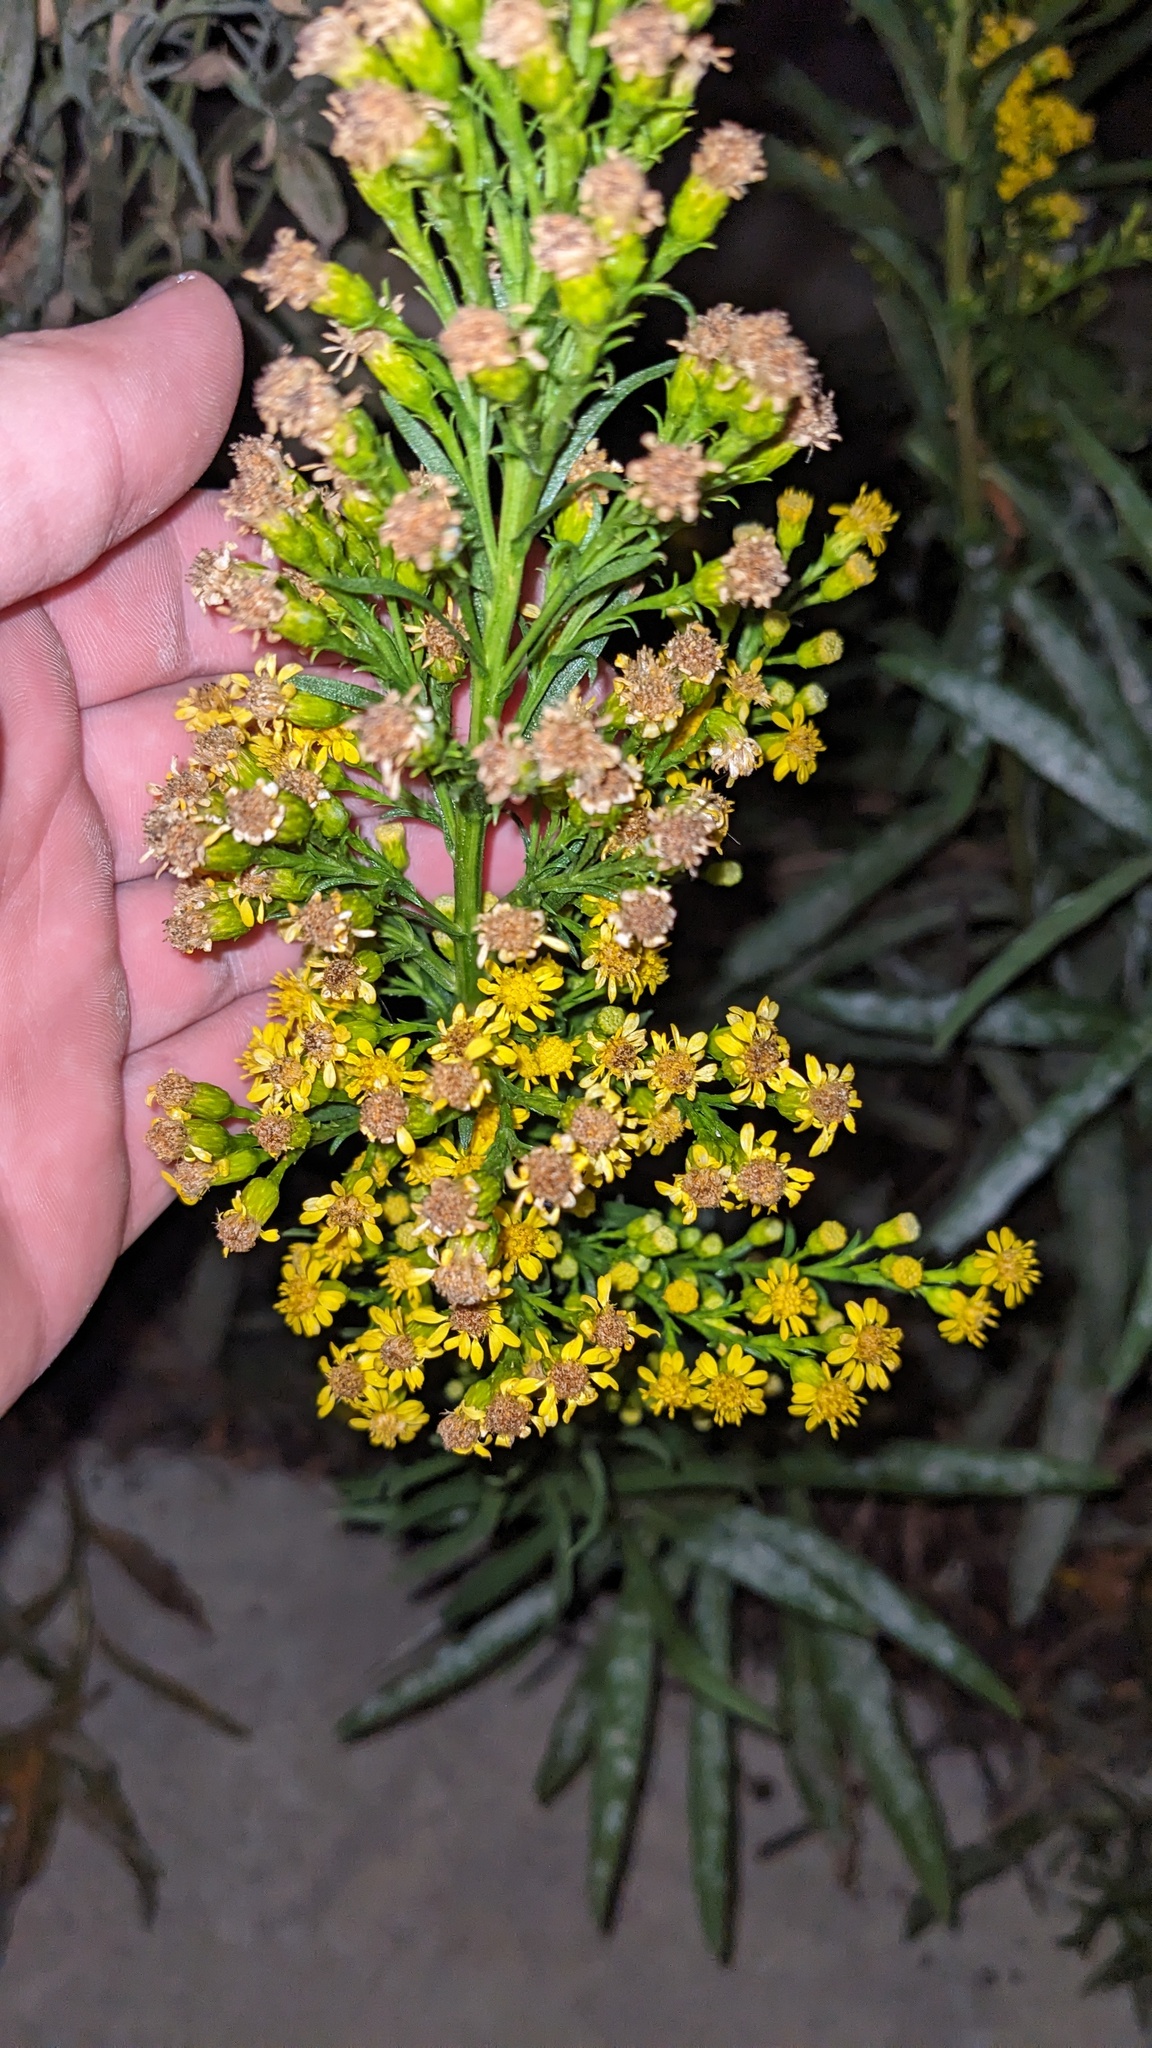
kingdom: Fungi
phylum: Ascomycota
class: Leotiomycetes
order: Helotiales
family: Erysiphaceae
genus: Golovinomyces
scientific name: Golovinomyces asterum
